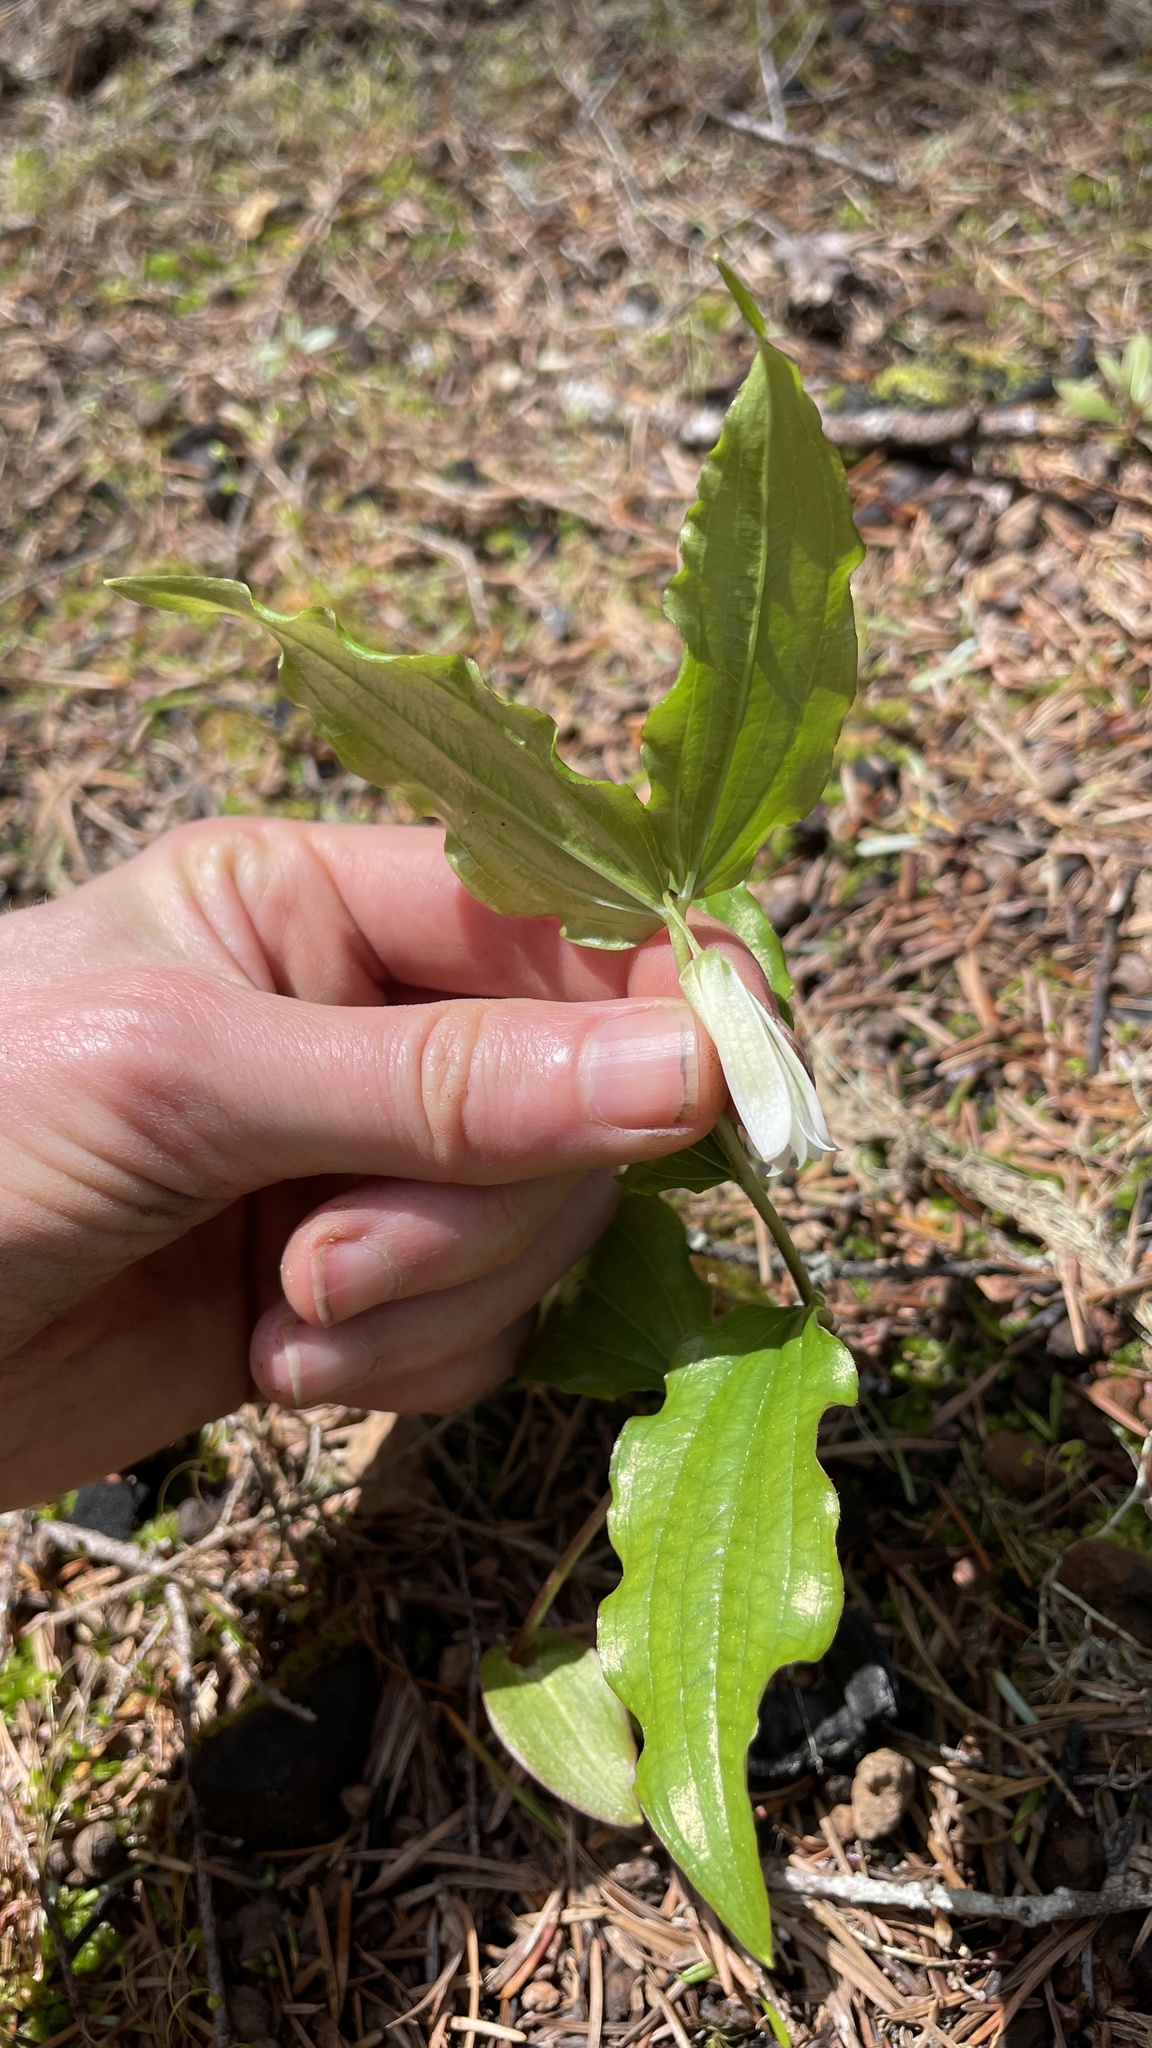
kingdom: Plantae
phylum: Tracheophyta
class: Liliopsida
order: Liliales
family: Liliaceae
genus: Prosartes
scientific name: Prosartes smithii
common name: Fairy-lantern
